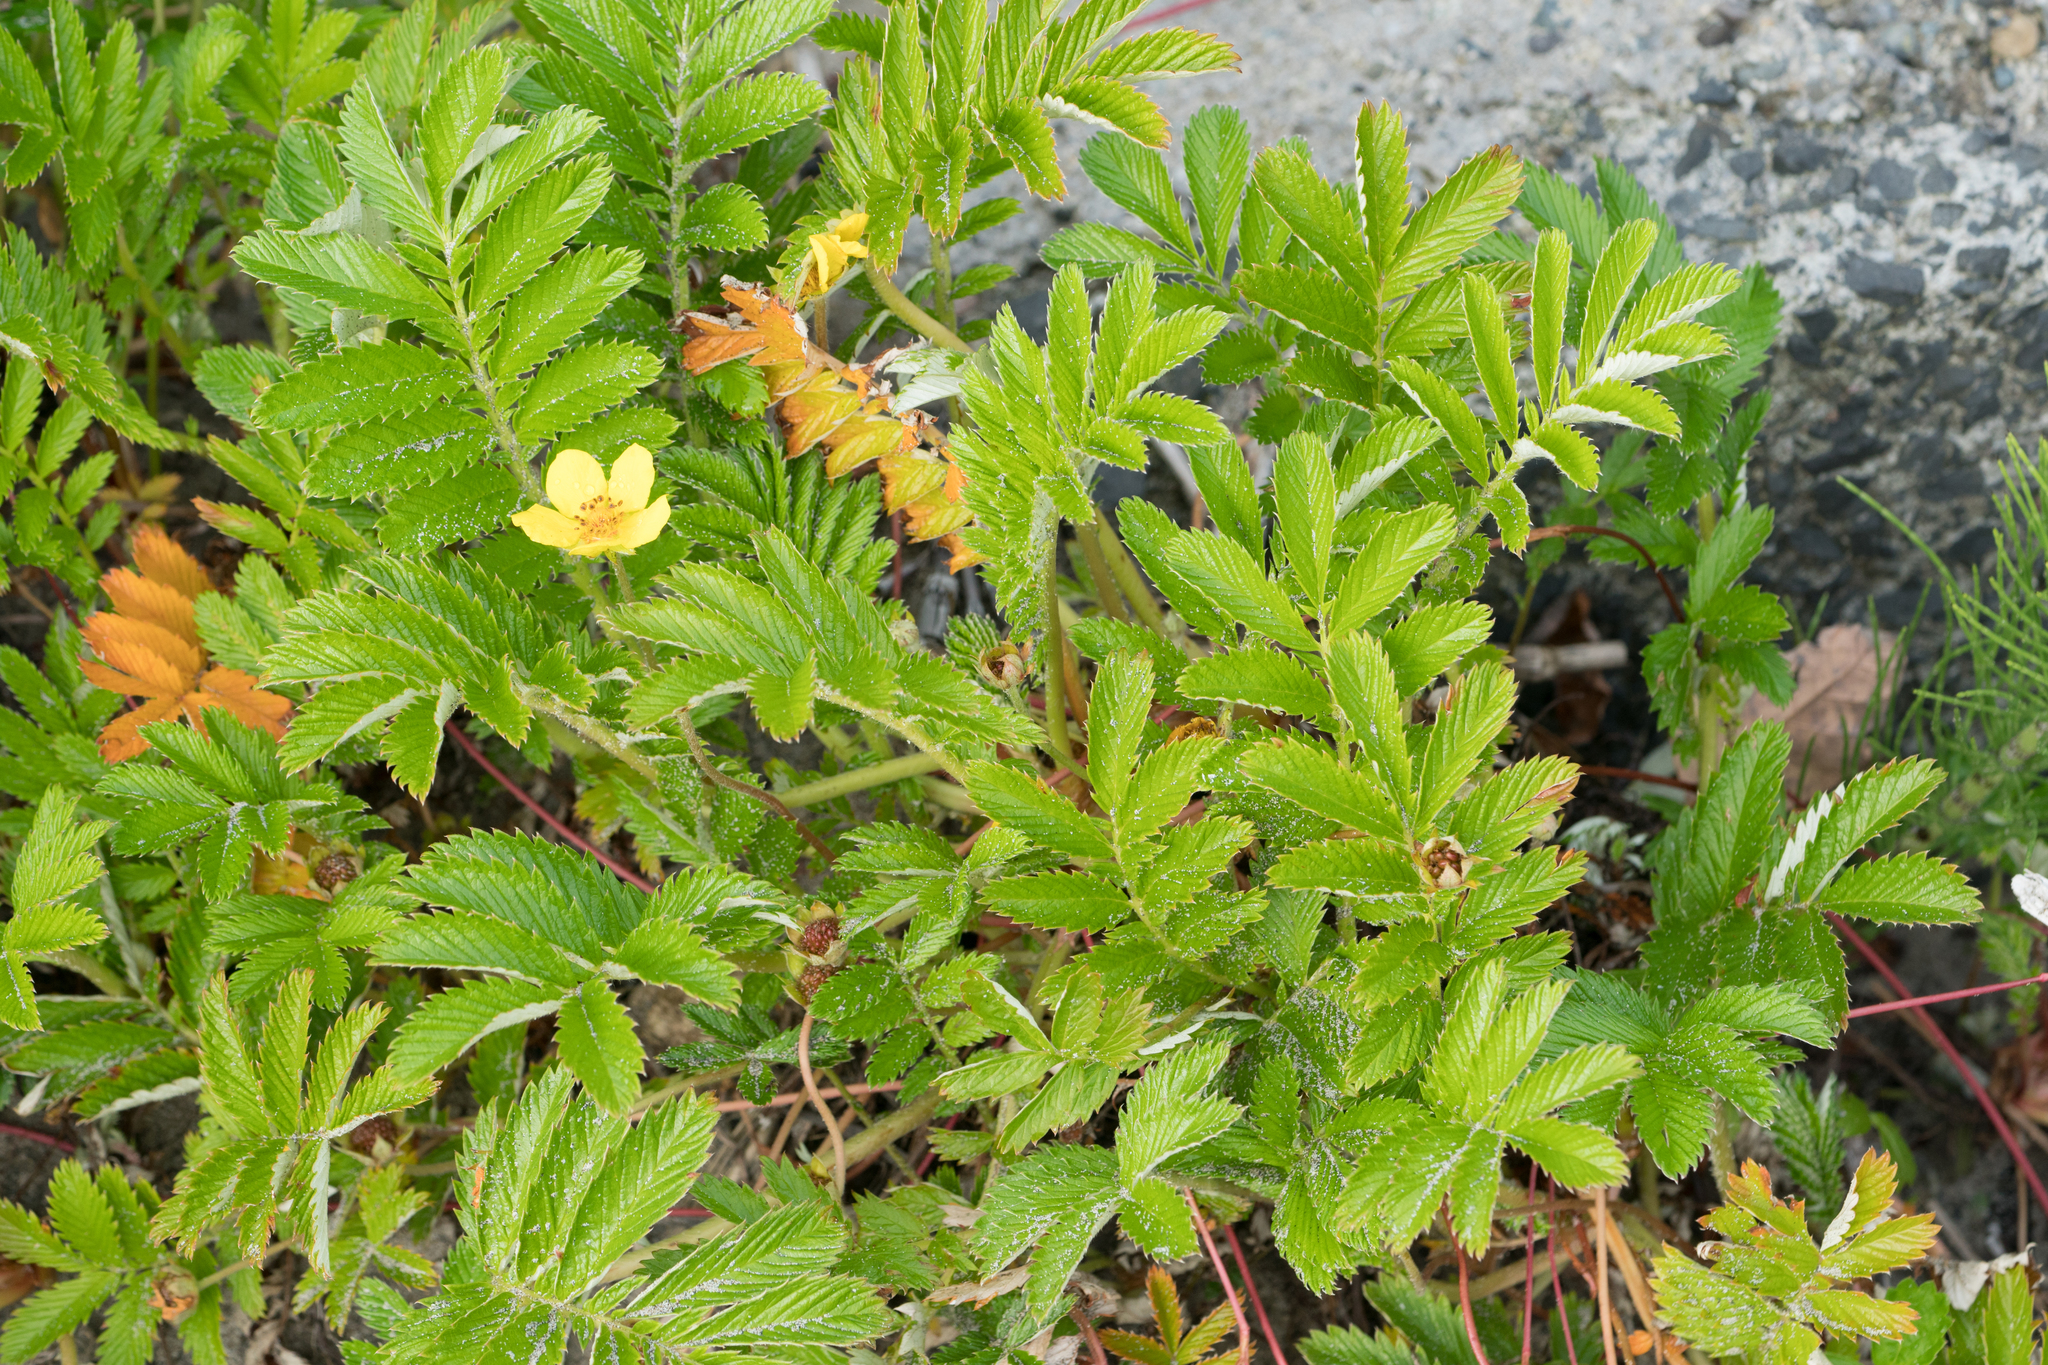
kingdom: Plantae
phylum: Tracheophyta
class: Magnoliopsida
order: Rosales
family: Rosaceae
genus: Argentina
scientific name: Argentina anserina
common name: Common silverweed
